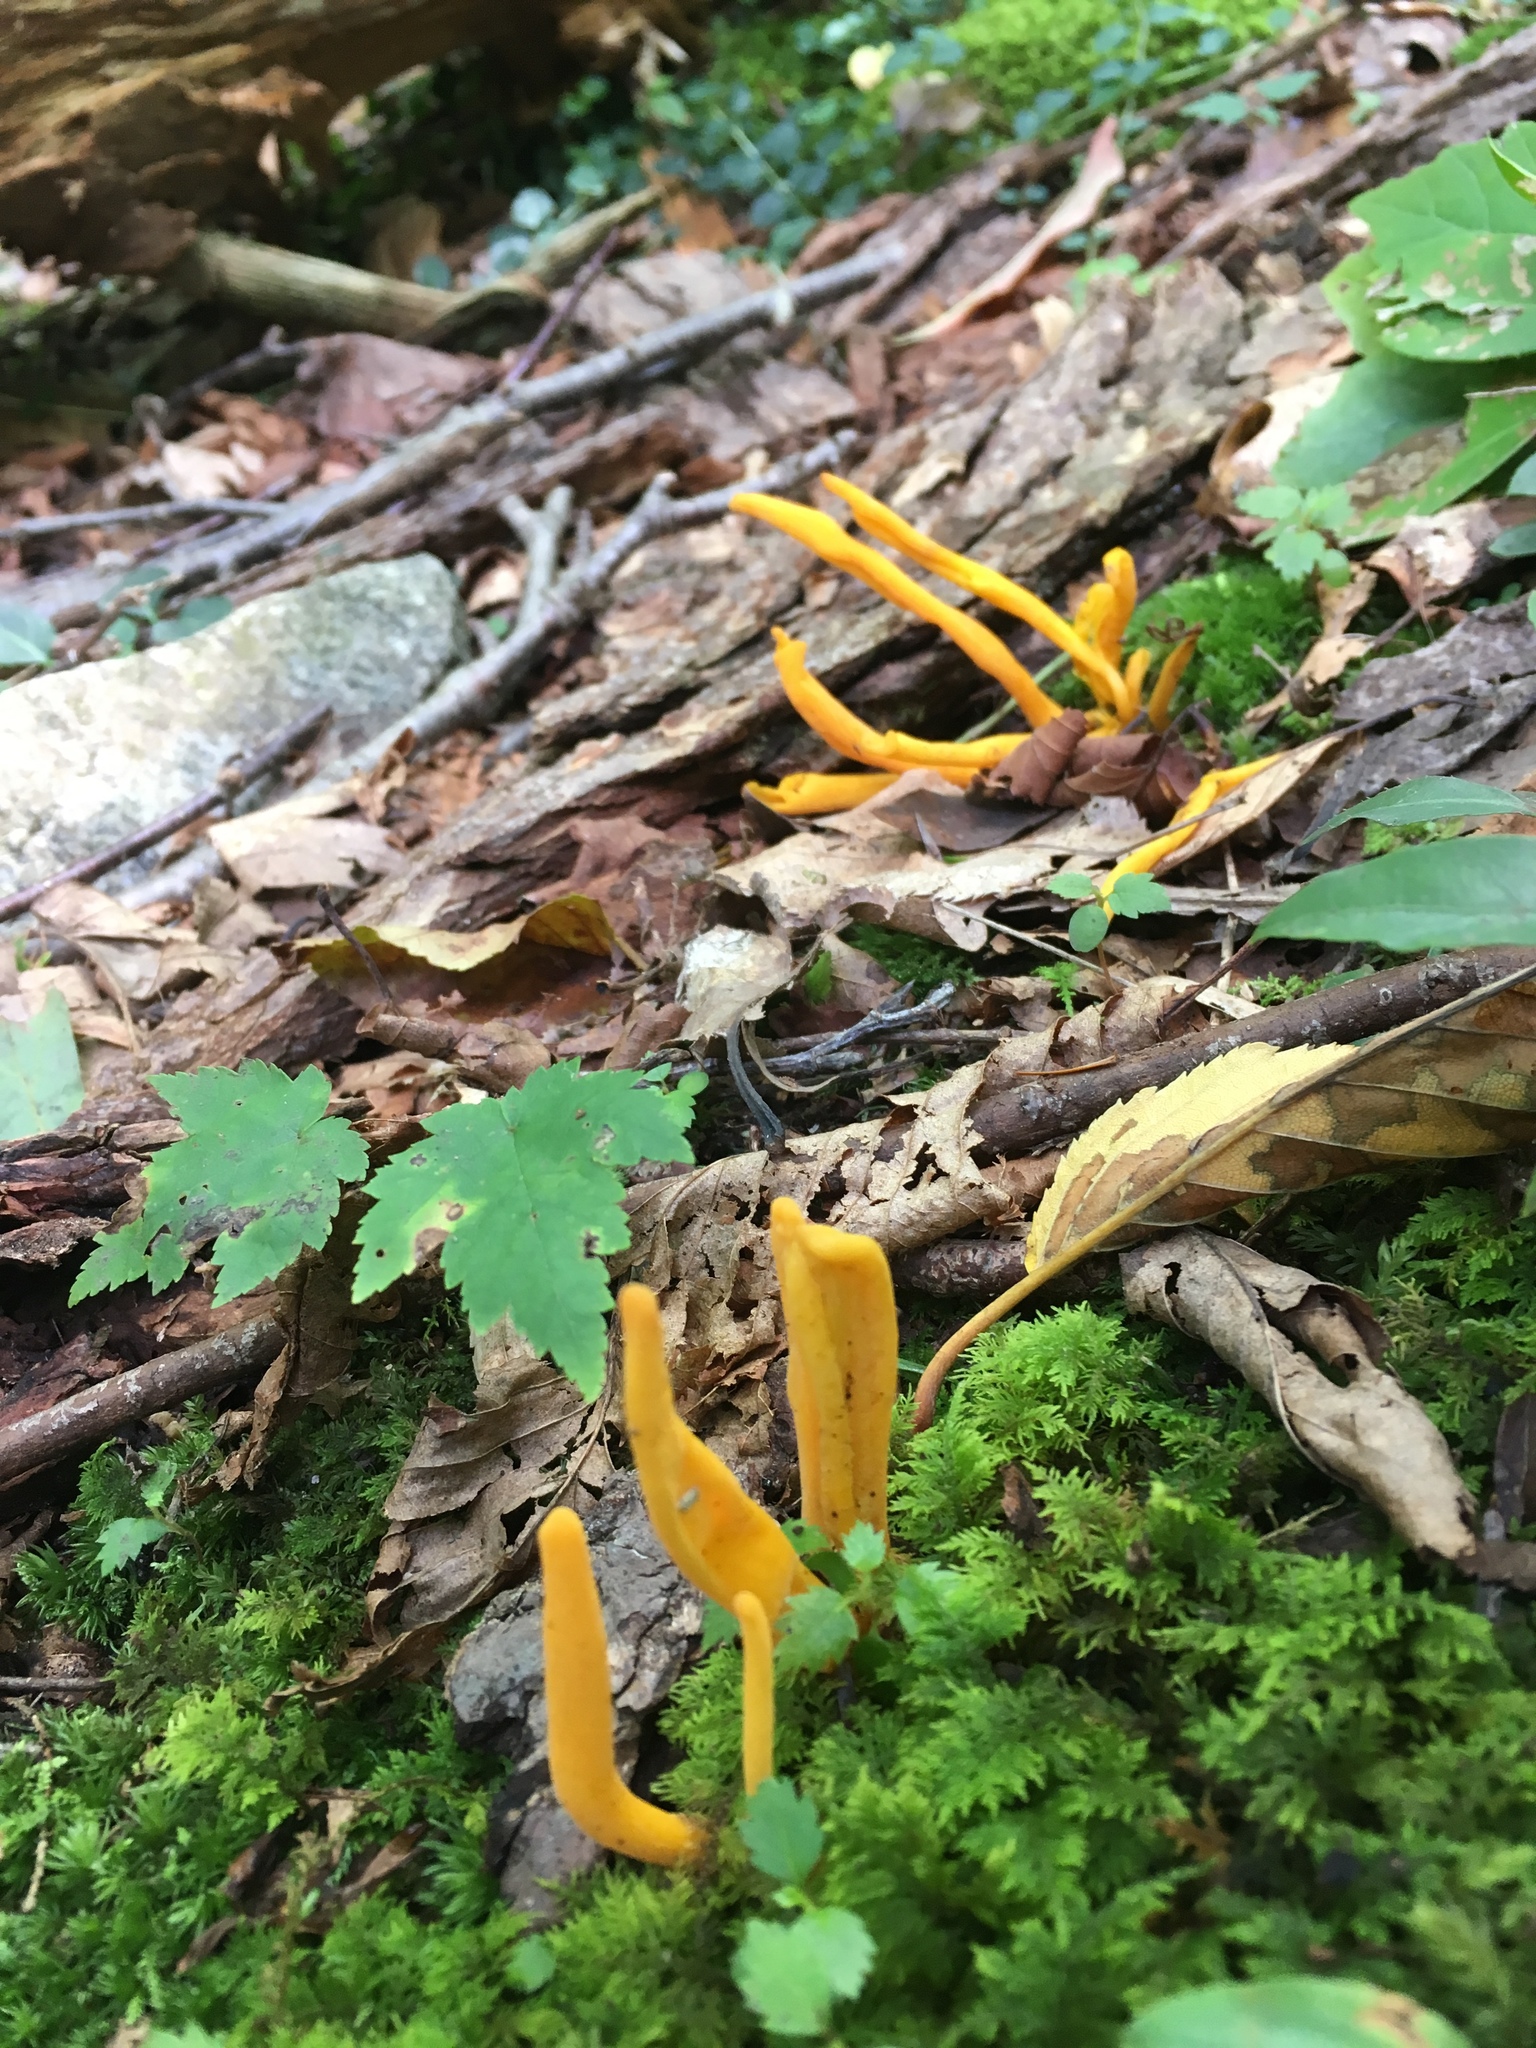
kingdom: Fungi
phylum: Basidiomycota
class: Agaricomycetes
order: Agaricales
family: Clavariaceae
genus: Clavulinopsis
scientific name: Clavulinopsis laeticolor
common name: Handsome club
